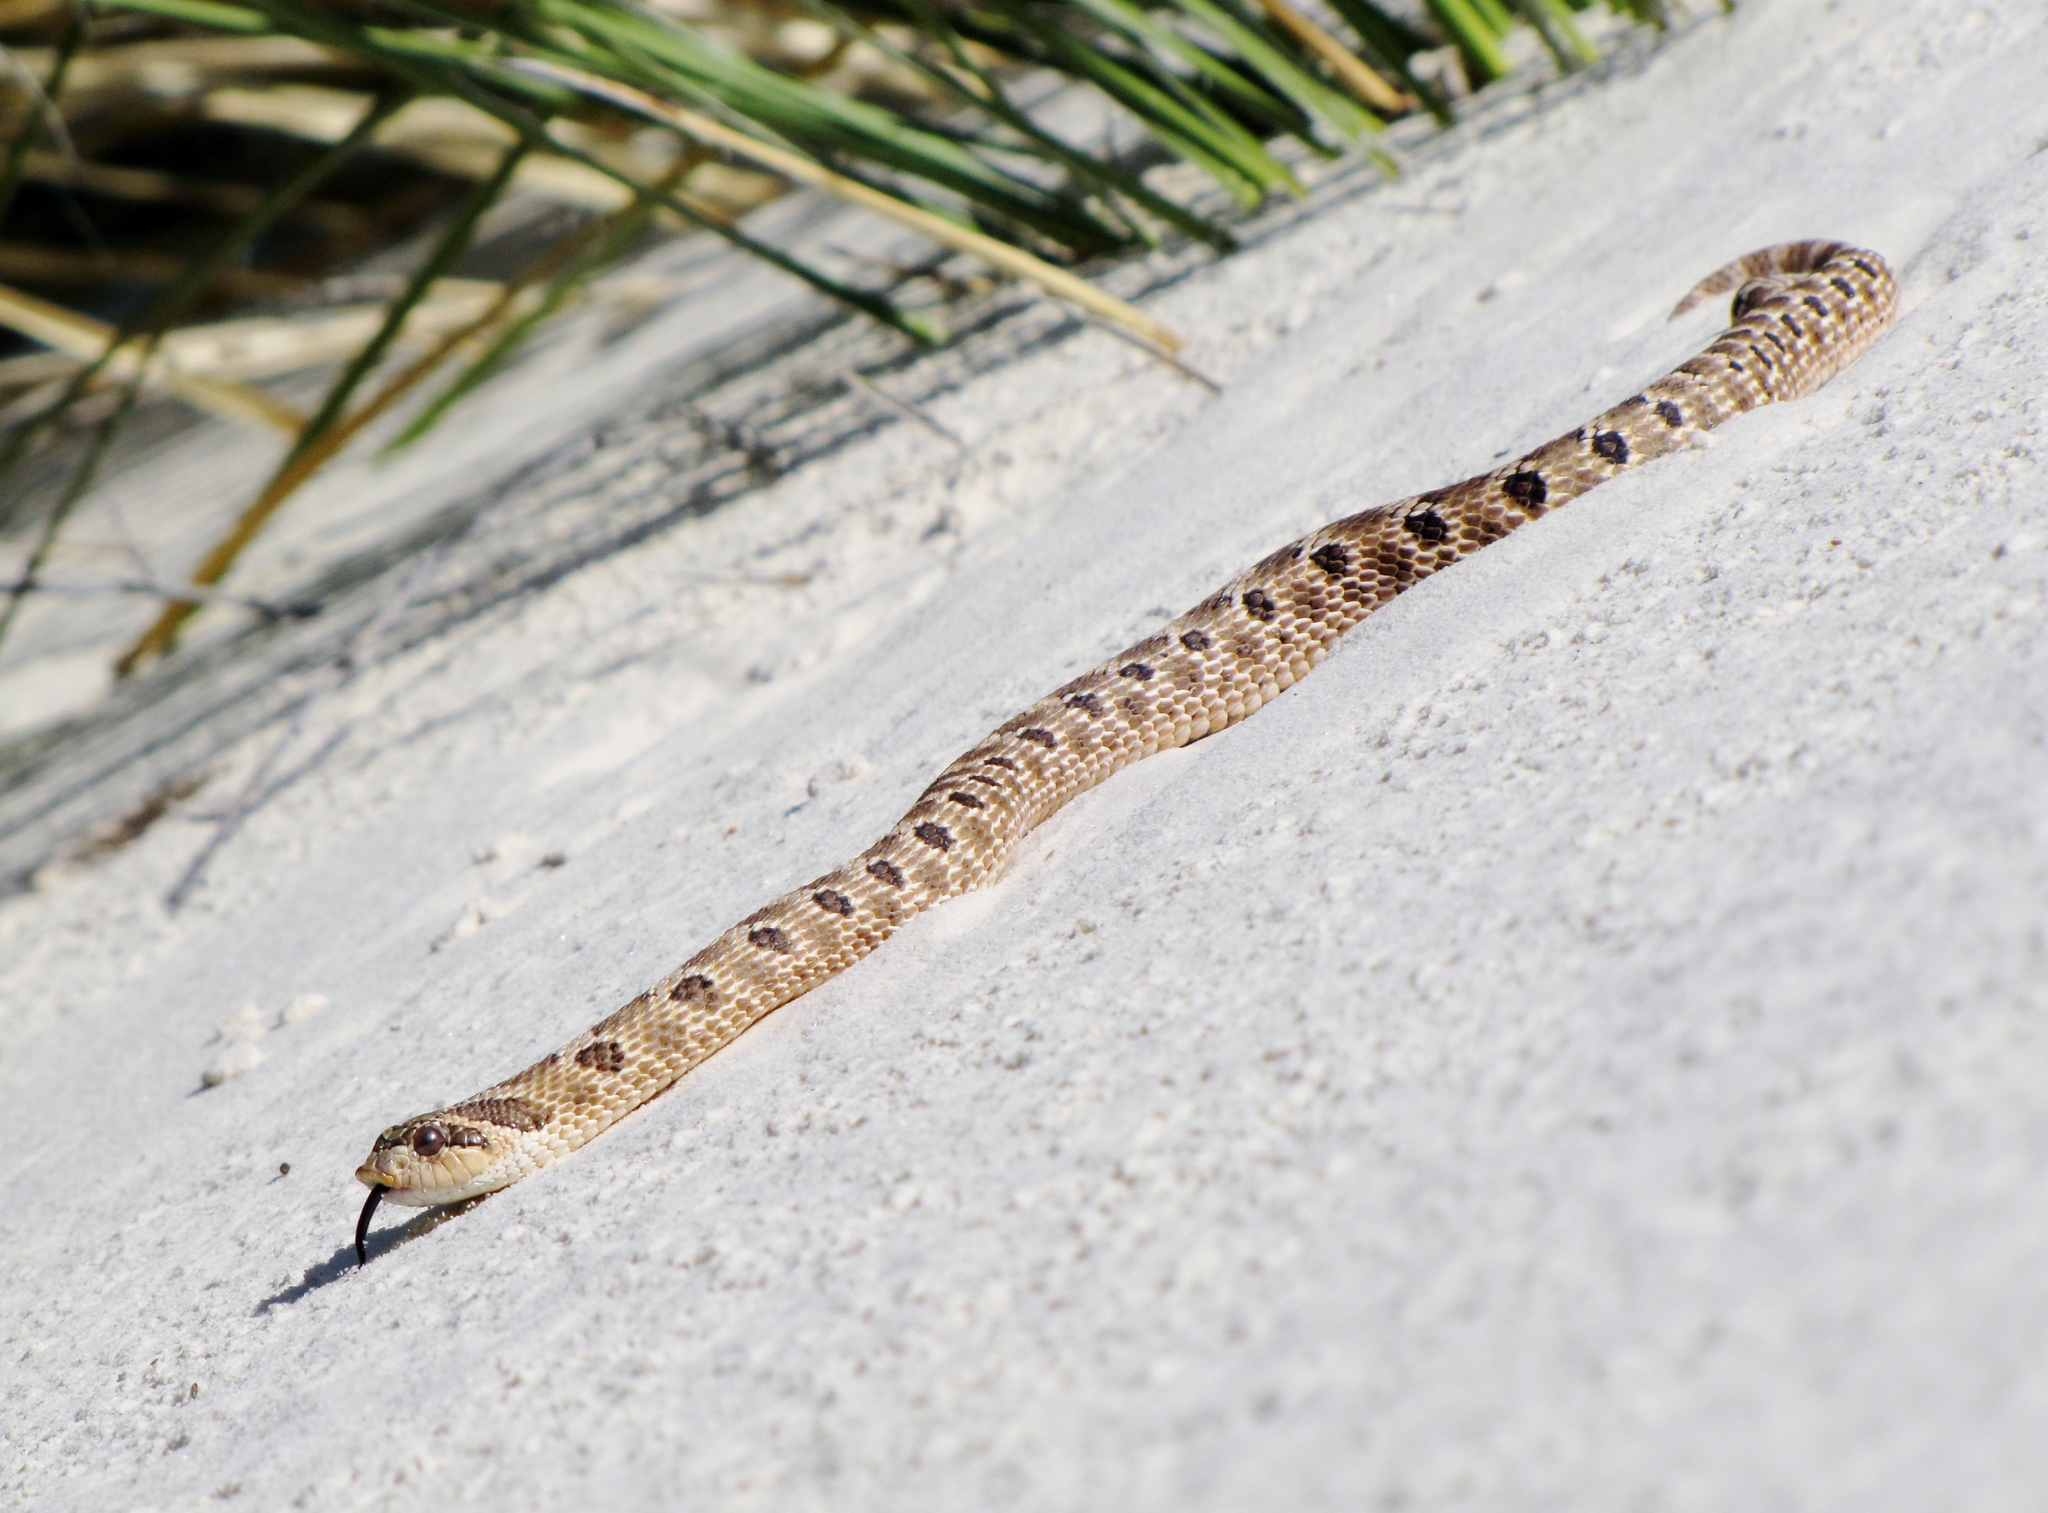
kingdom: Animalia
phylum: Chordata
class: Squamata
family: Colubridae
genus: Heterodon
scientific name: Heterodon nasicus
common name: Western hognose snake
